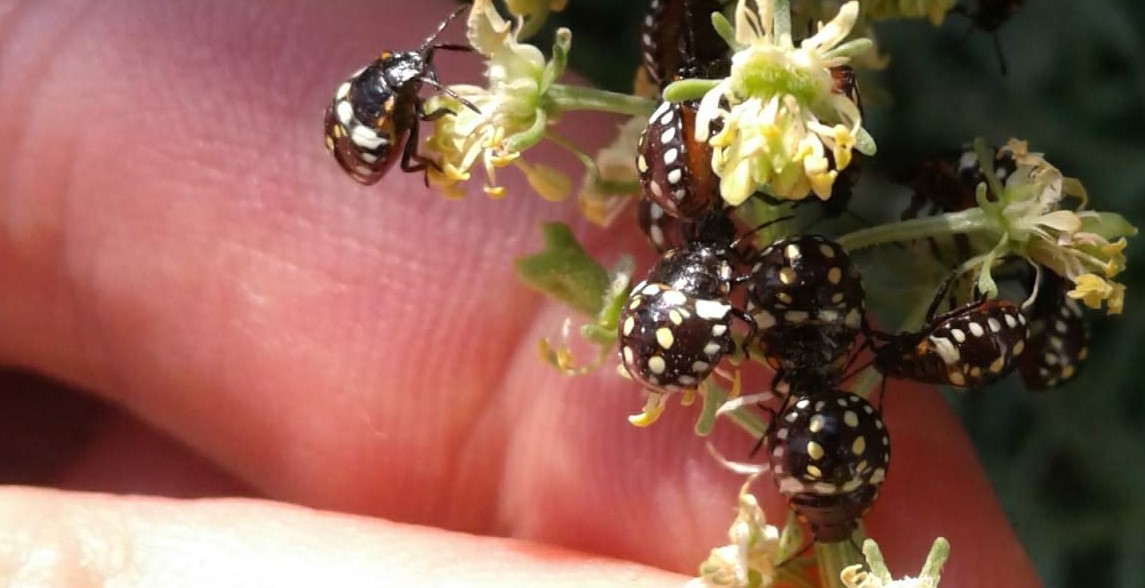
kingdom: Animalia
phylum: Arthropoda
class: Insecta
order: Hemiptera
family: Pentatomidae
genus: Nezara
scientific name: Nezara viridula
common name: Southern green stink bug
